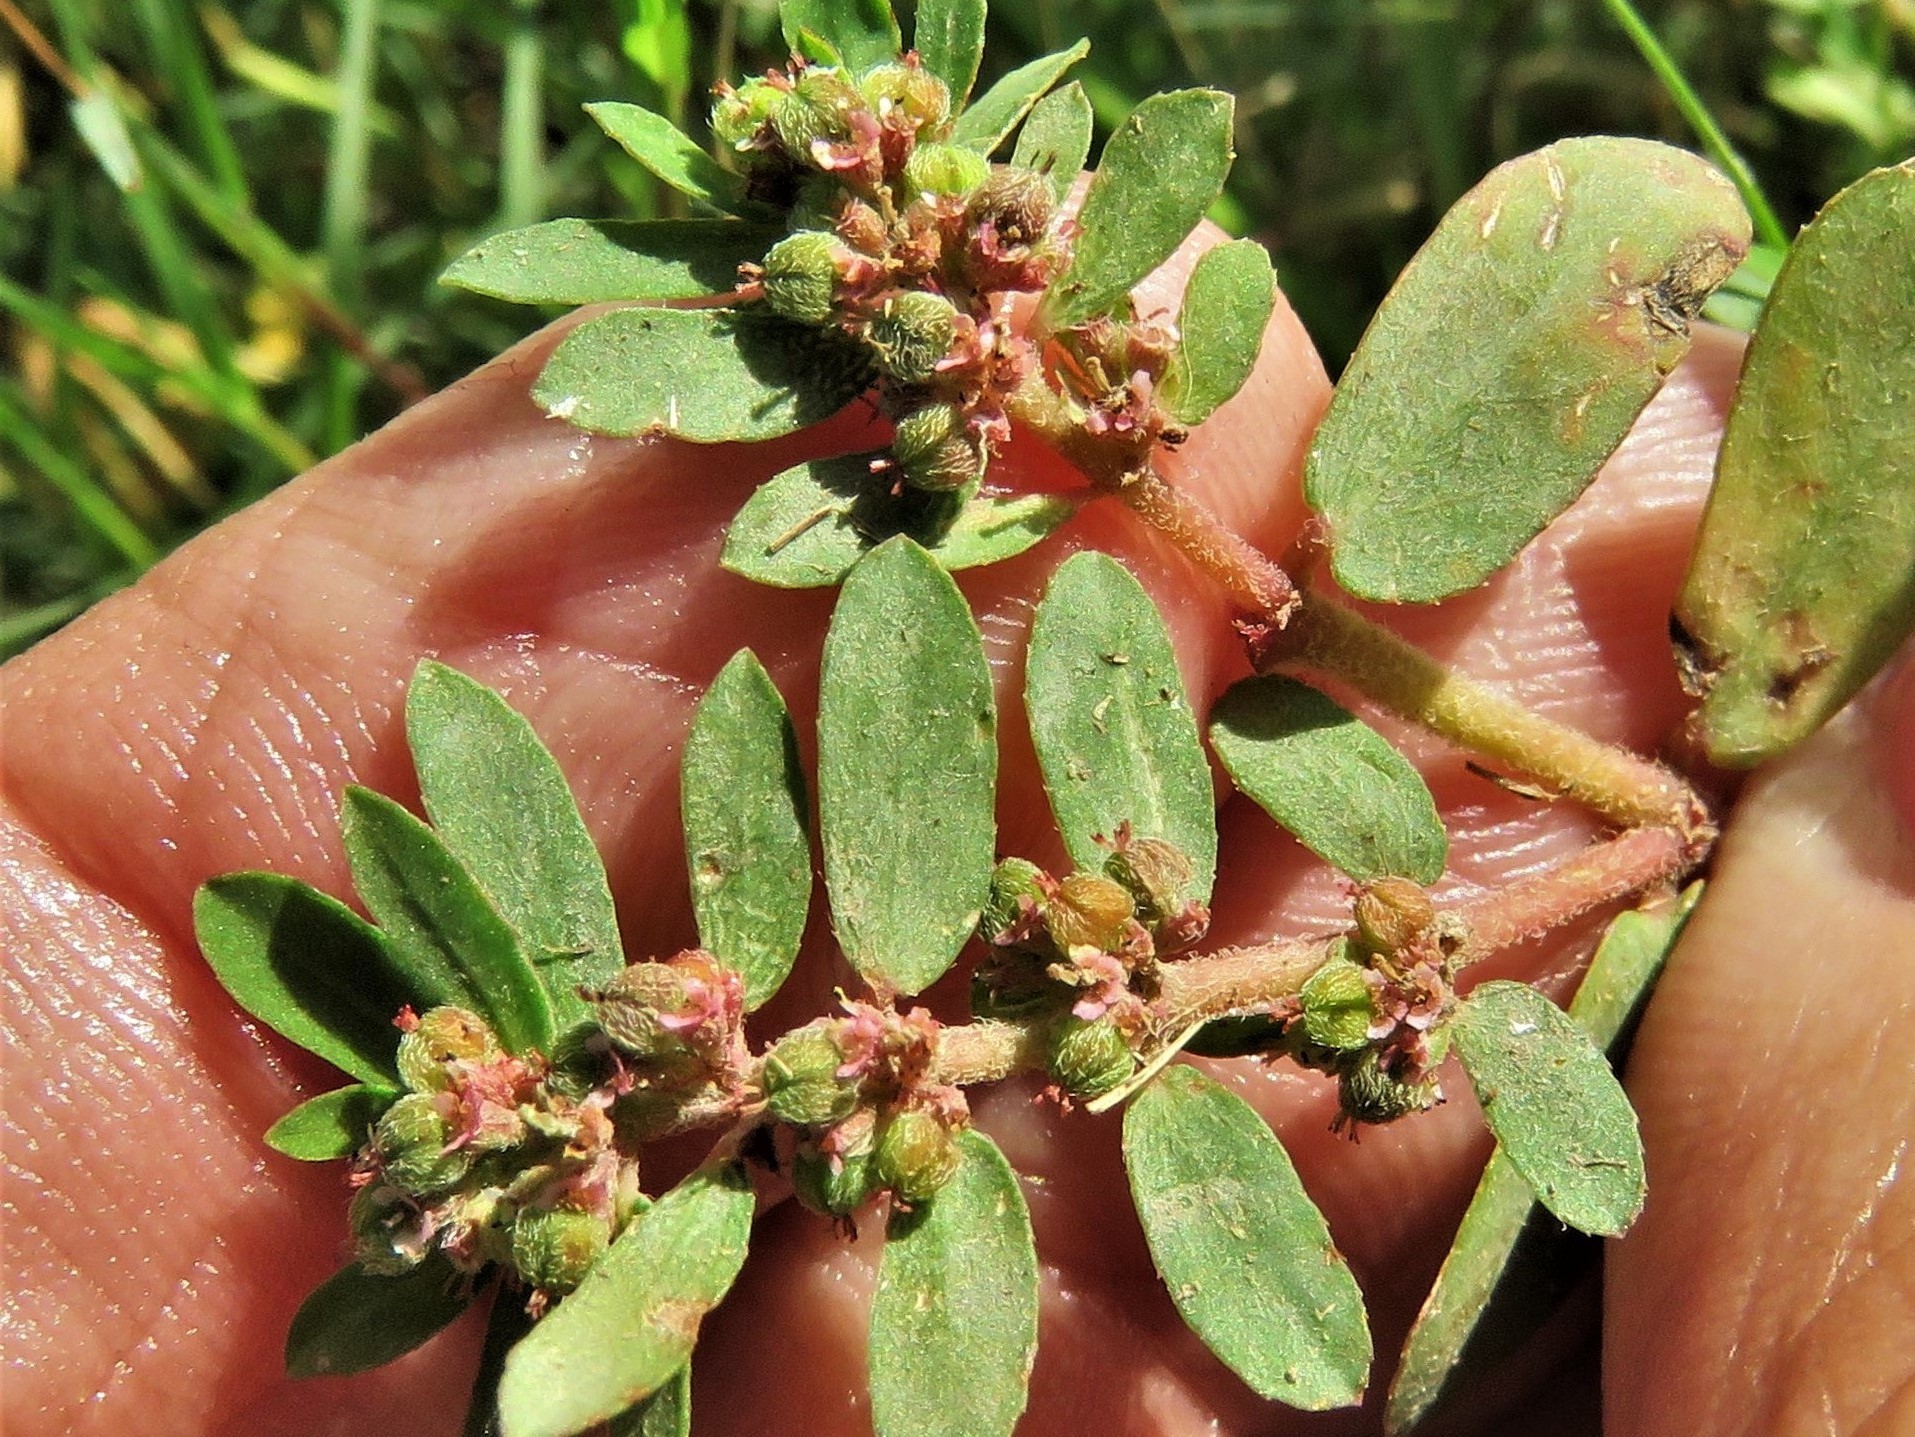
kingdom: Plantae
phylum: Tracheophyta
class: Magnoliopsida
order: Malpighiales
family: Euphorbiaceae
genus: Euphorbia
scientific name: Euphorbia humistrata
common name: Hairy spreading spurge
